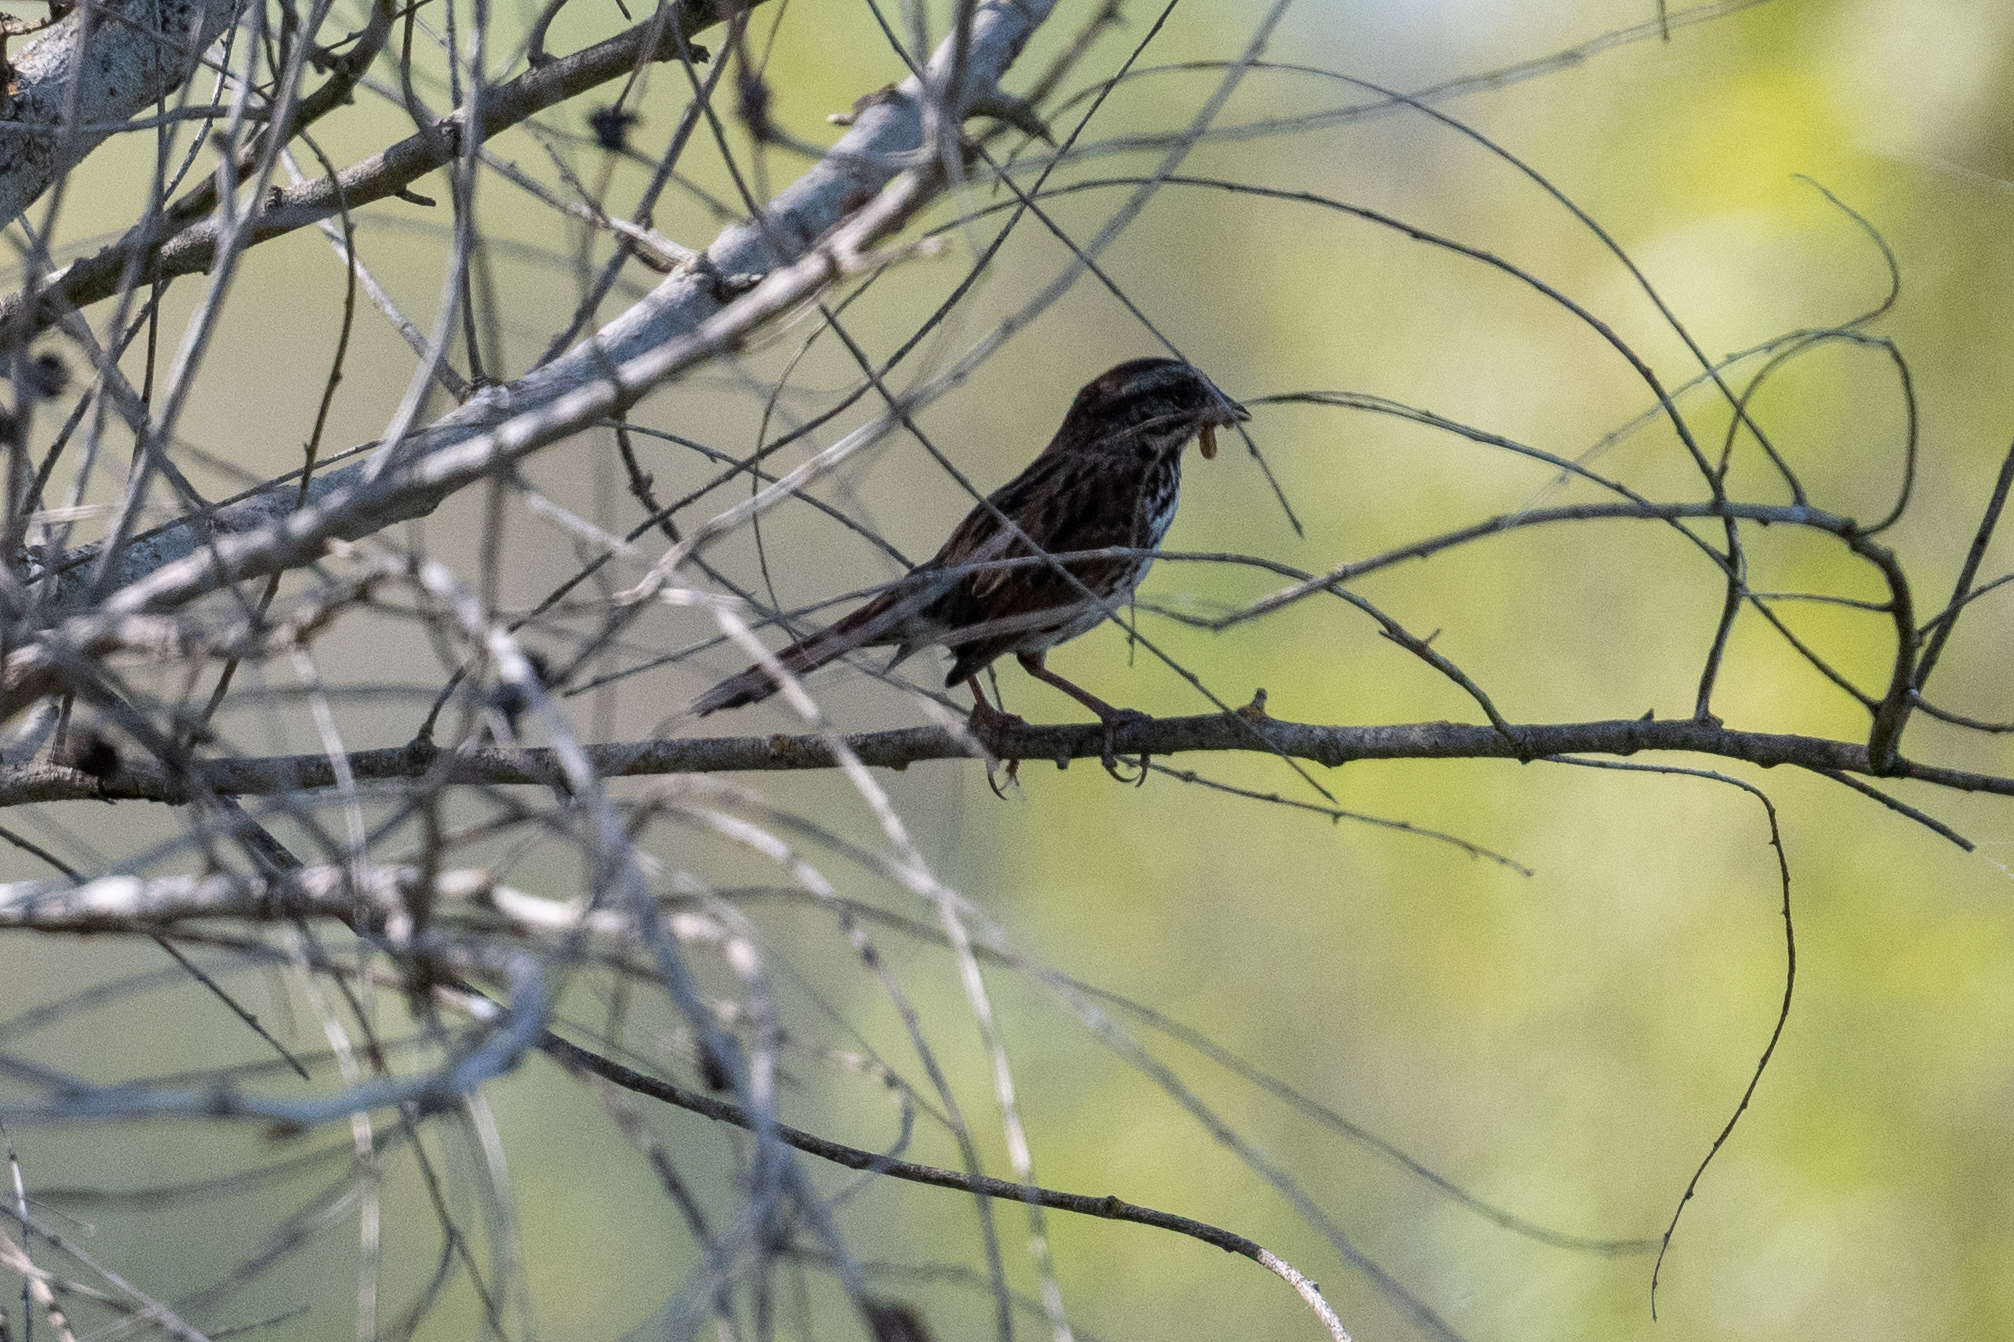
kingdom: Animalia
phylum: Chordata
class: Aves
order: Passeriformes
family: Passerellidae
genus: Melospiza
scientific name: Melospiza melodia
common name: Song sparrow
